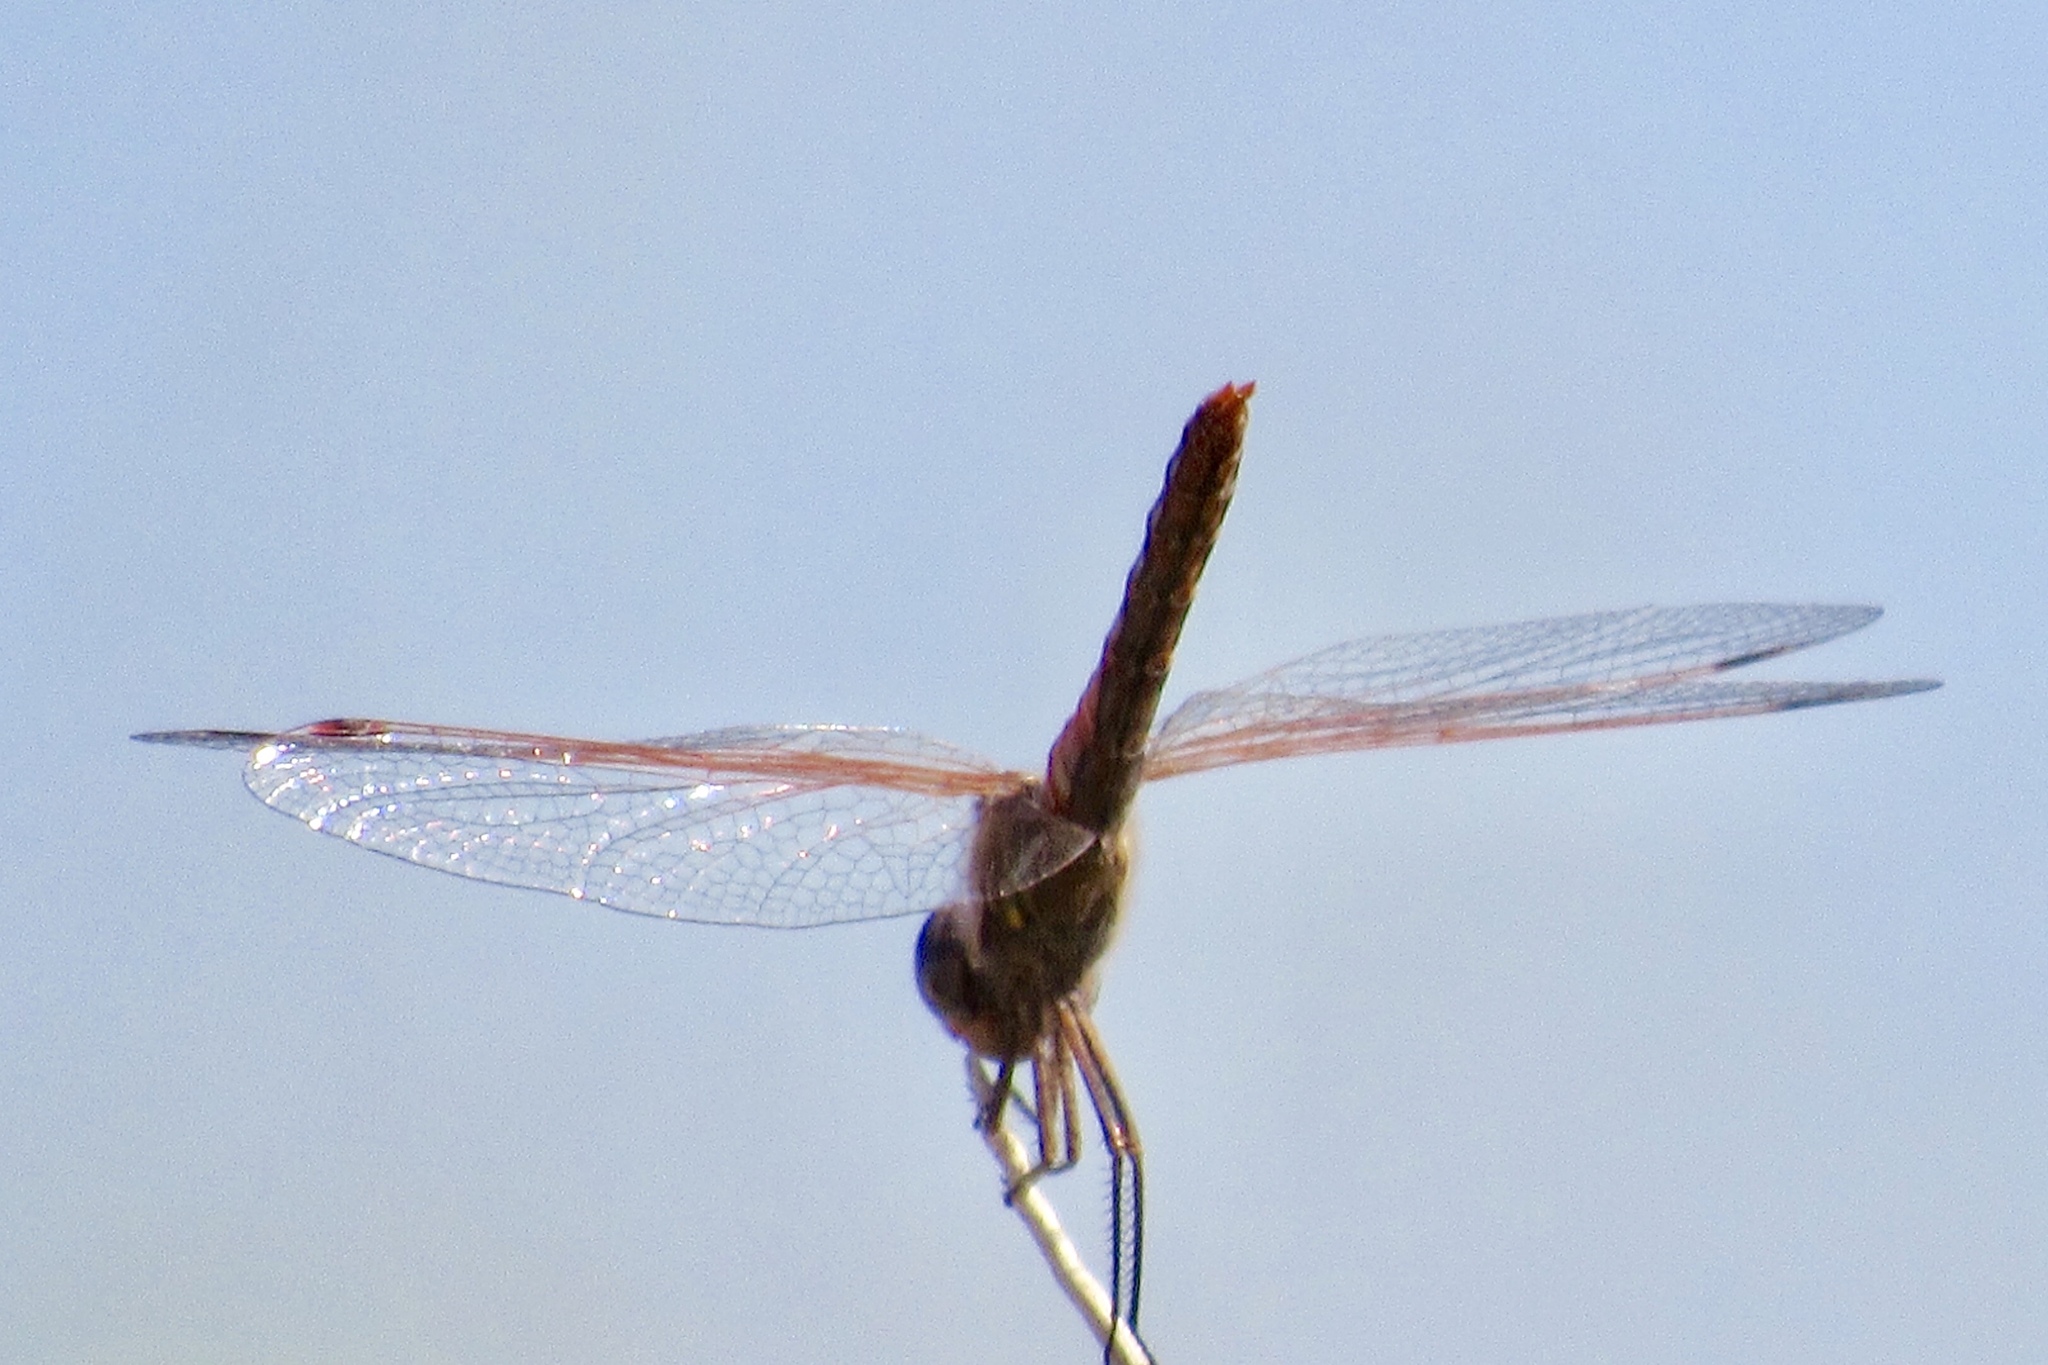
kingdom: Animalia
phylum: Arthropoda
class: Insecta
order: Odonata
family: Libellulidae
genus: Sympetrum
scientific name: Sympetrum corruptum
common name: Variegated meadowhawk
